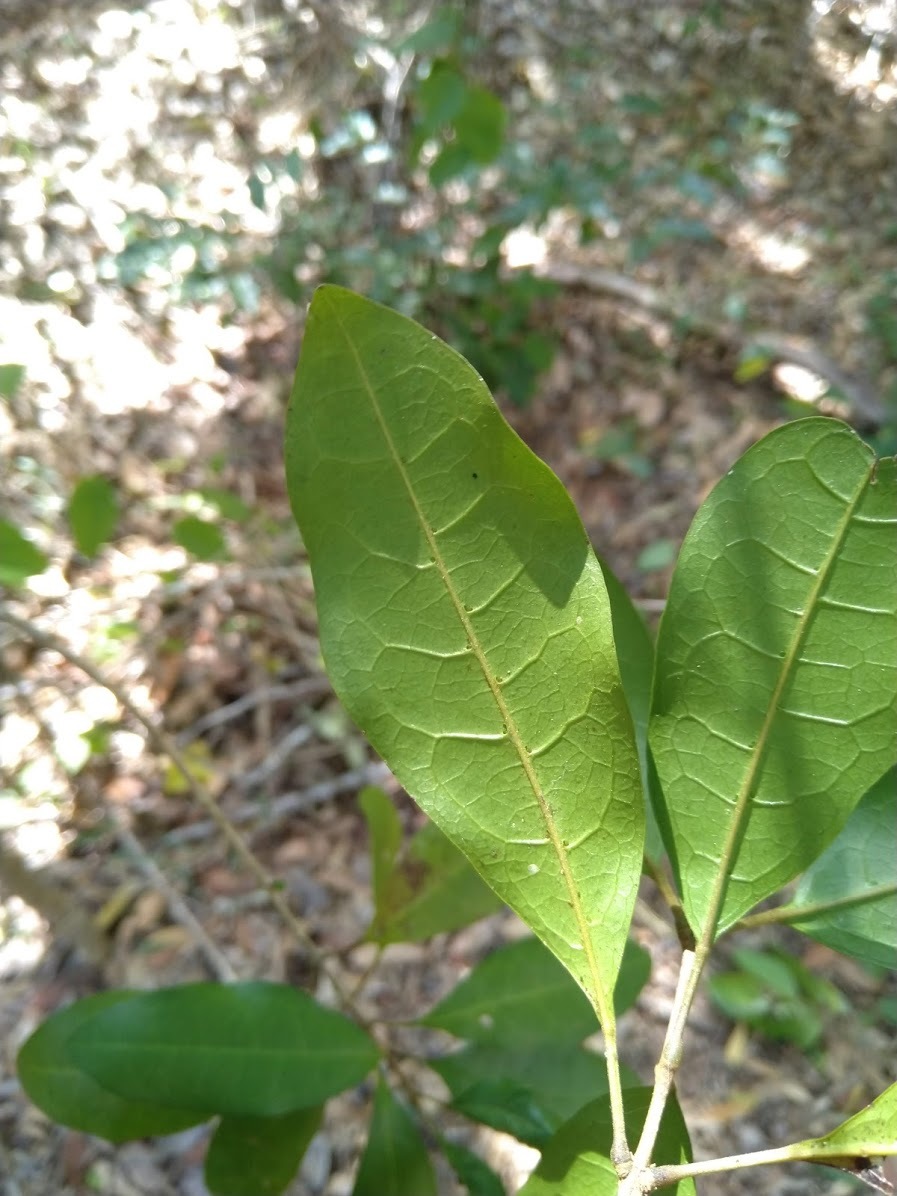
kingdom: Plantae
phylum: Tracheophyta
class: Magnoliopsida
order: Lamiales
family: Lamiaceae
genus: Vitex
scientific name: Vitex lignum-vitae
